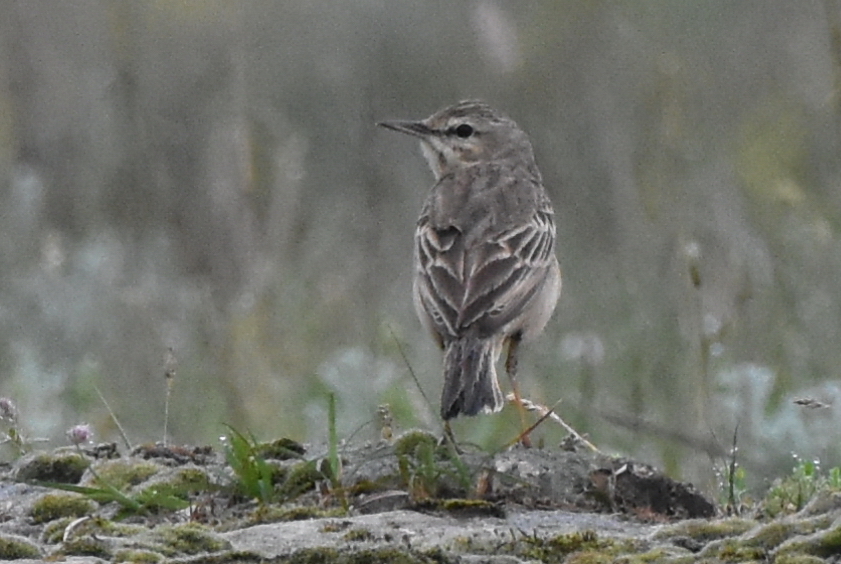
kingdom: Animalia
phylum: Chordata
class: Aves
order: Passeriformes
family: Motacillidae
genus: Anthus
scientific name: Anthus campestris
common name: Tawny pipit
